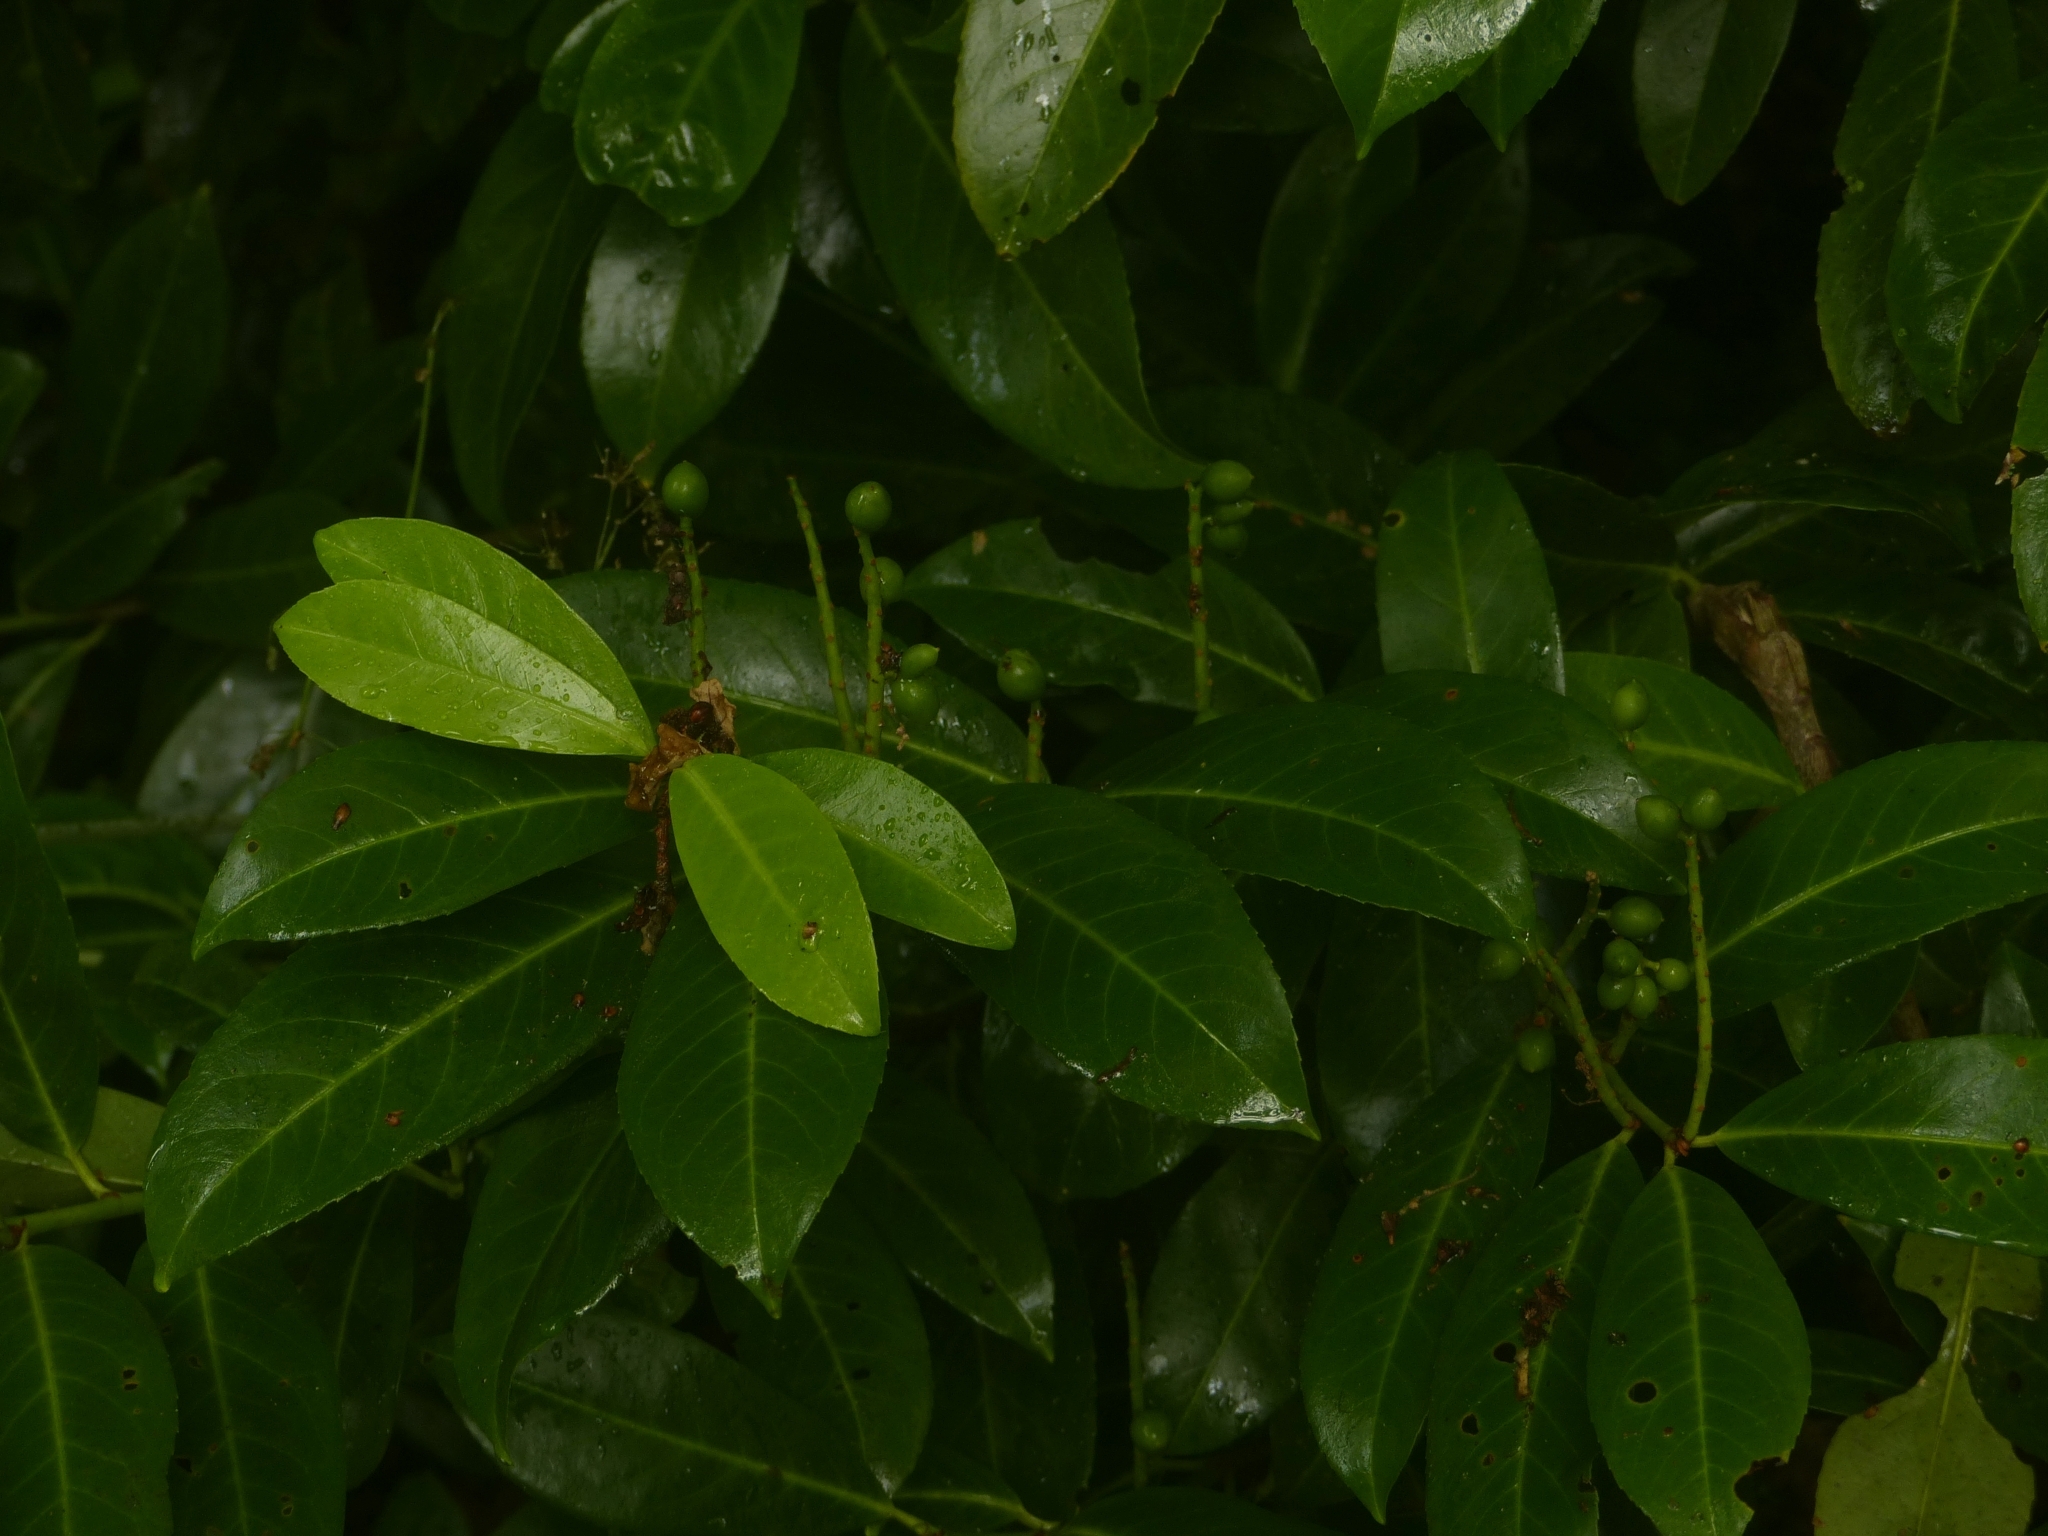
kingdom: Plantae
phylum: Tracheophyta
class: Magnoliopsida
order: Rosales
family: Rosaceae
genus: Prunus
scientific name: Prunus laurocerasus
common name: Cherry laurel
